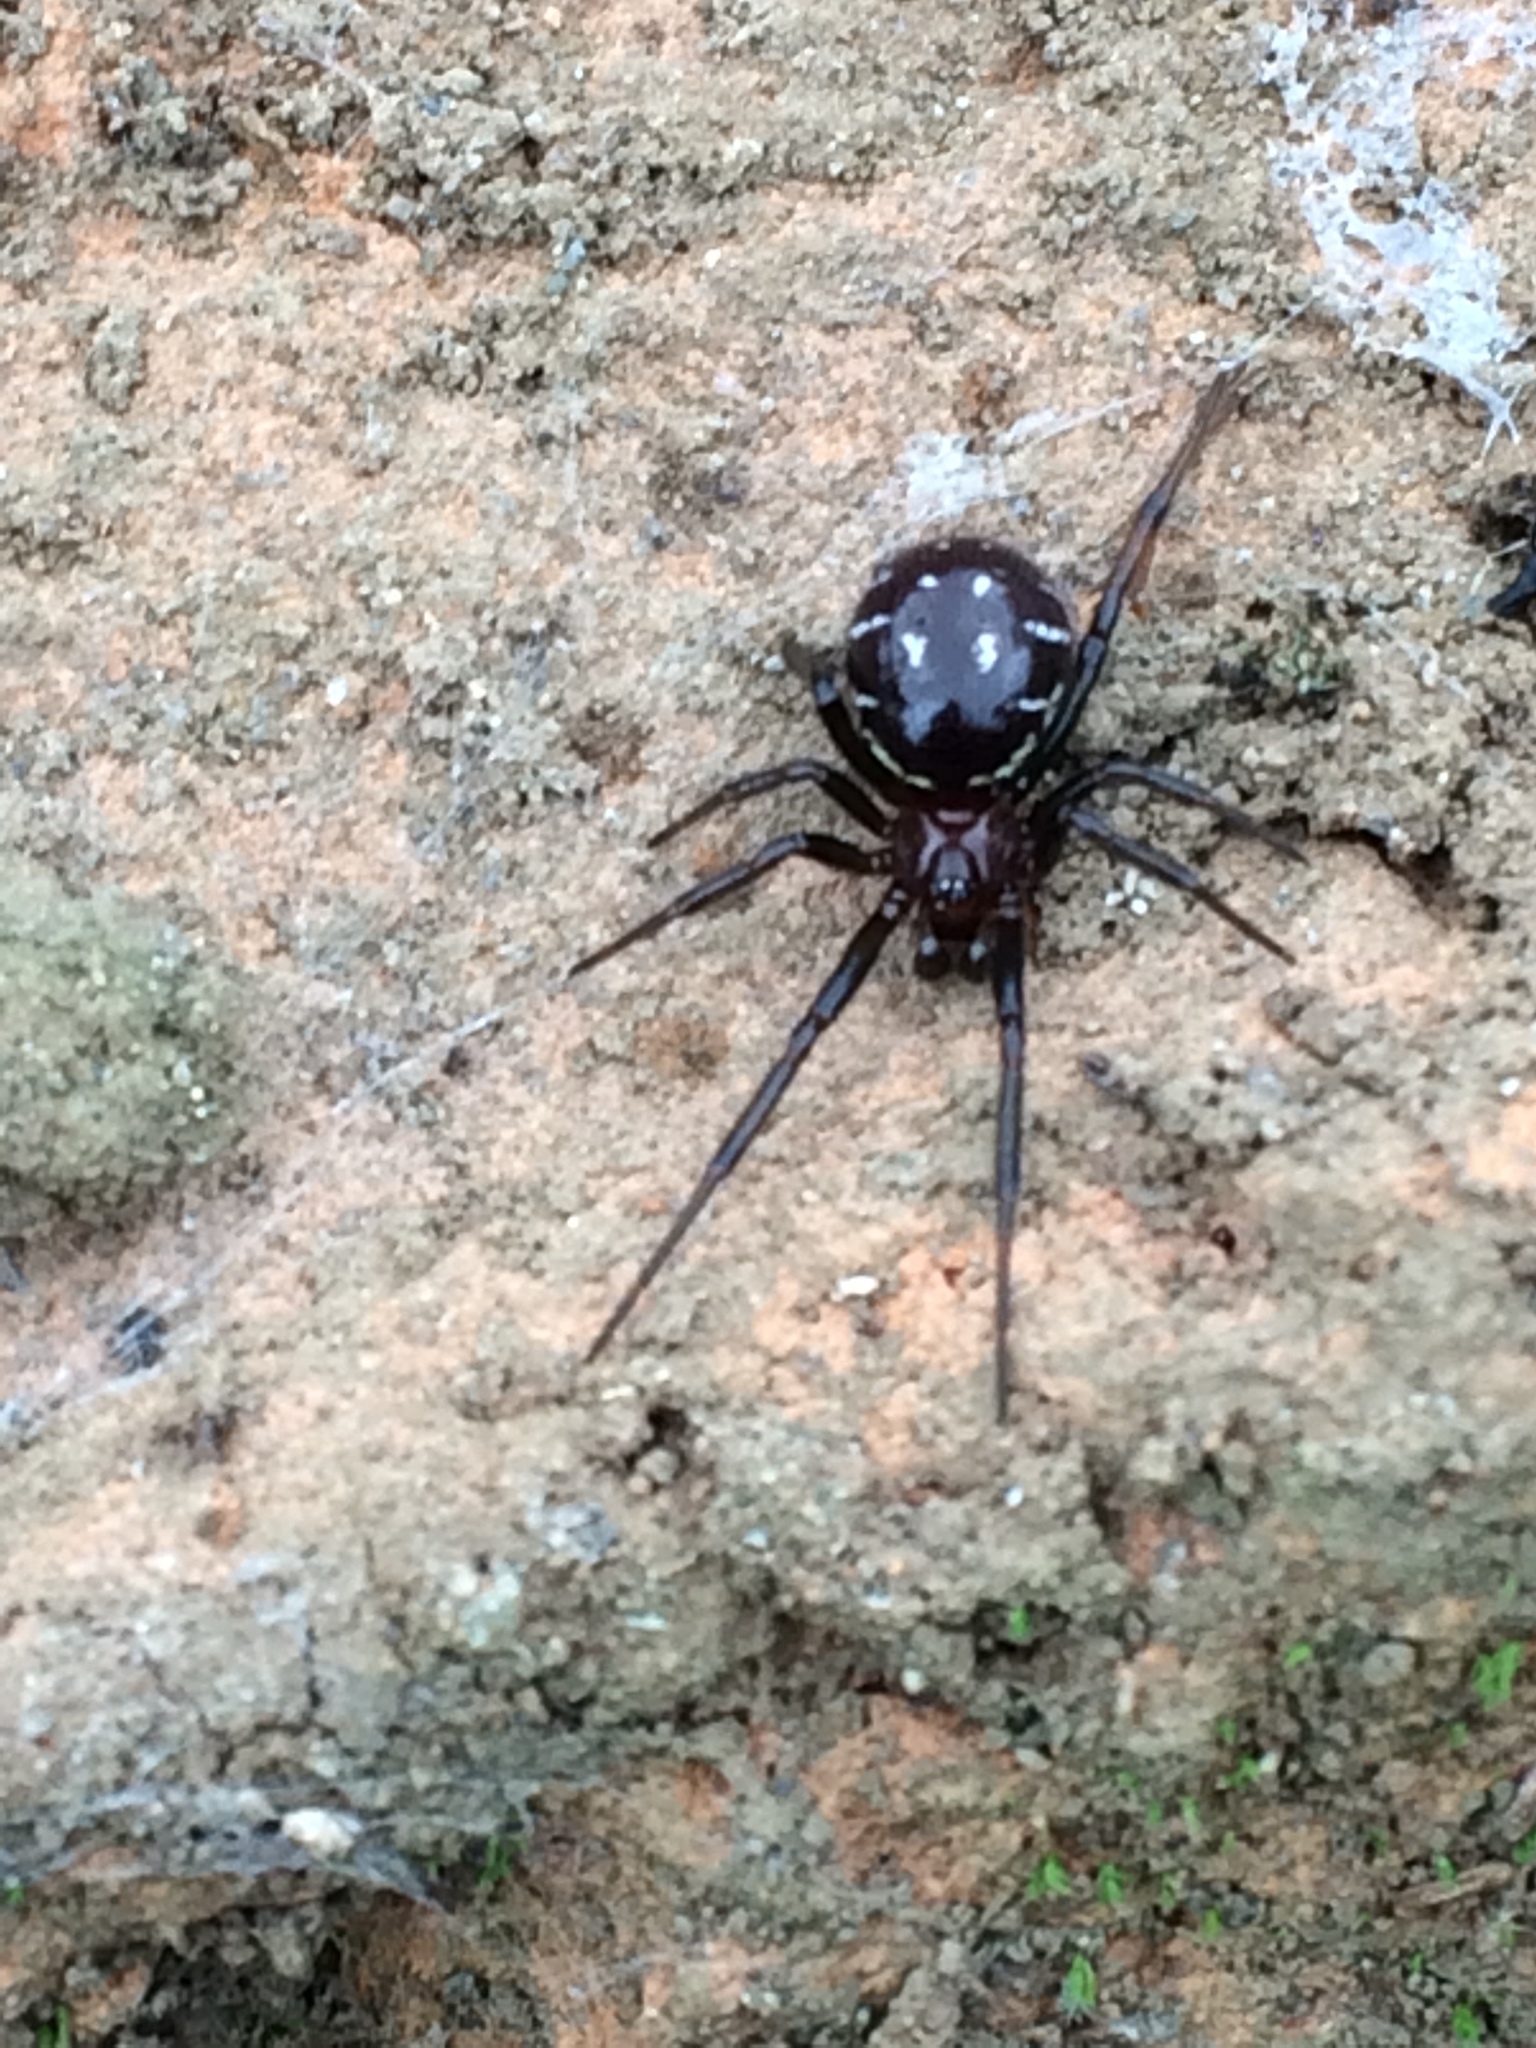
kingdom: Animalia
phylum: Arthropoda
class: Arachnida
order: Araneae
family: Theridiidae
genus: Steatoda
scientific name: Steatoda capensis
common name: Cobweb weaver
